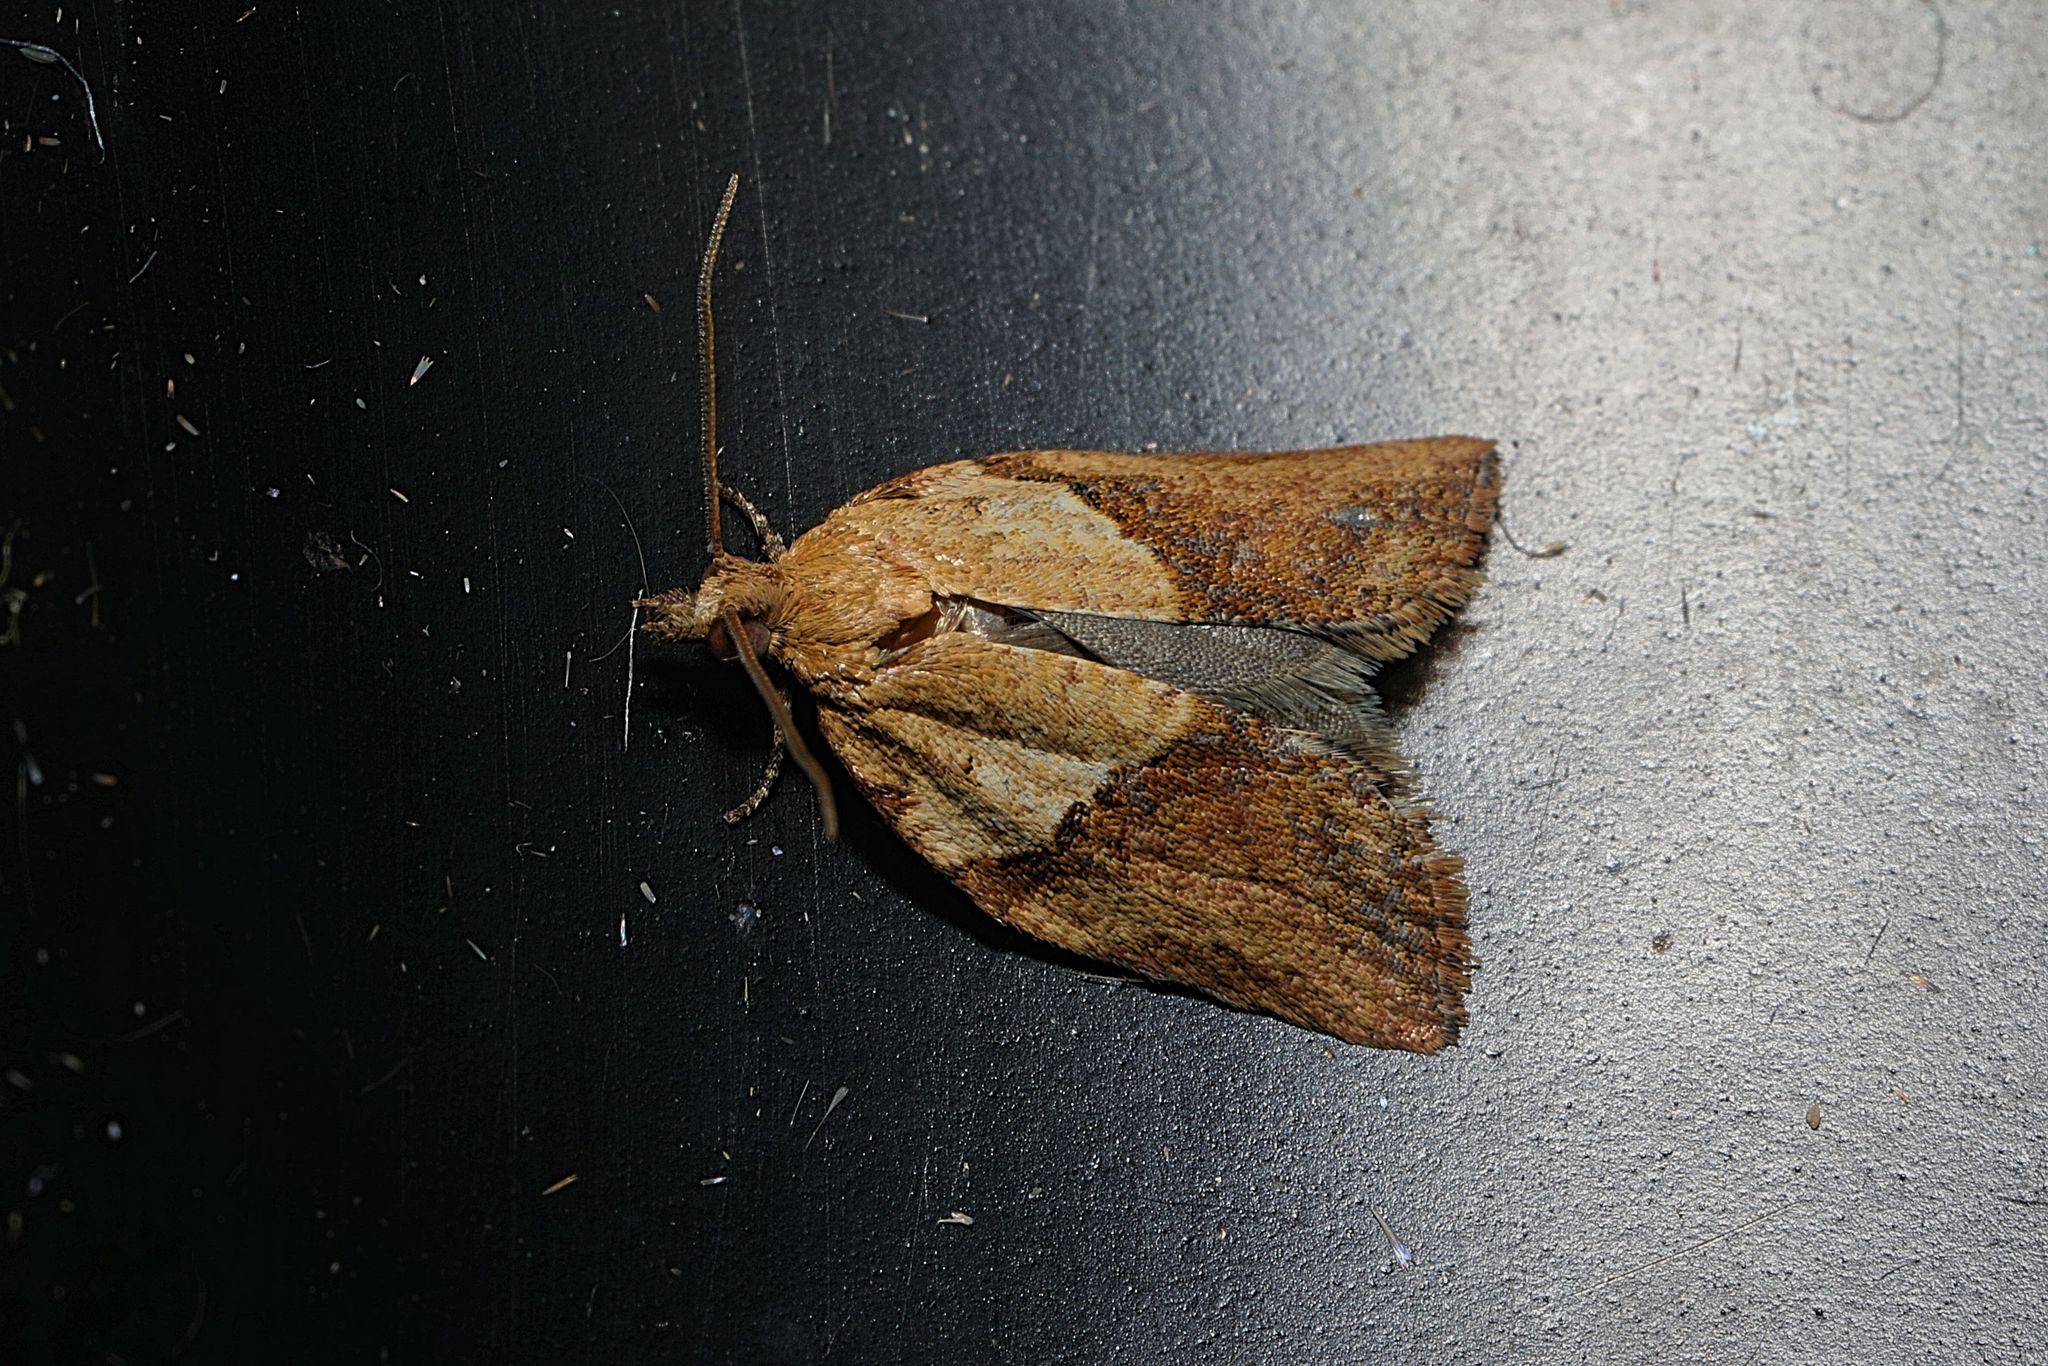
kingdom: Animalia
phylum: Arthropoda
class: Insecta
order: Lepidoptera
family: Tortricidae
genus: Epiphyas
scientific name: Epiphyas postvittana
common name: Light brown apple moth
